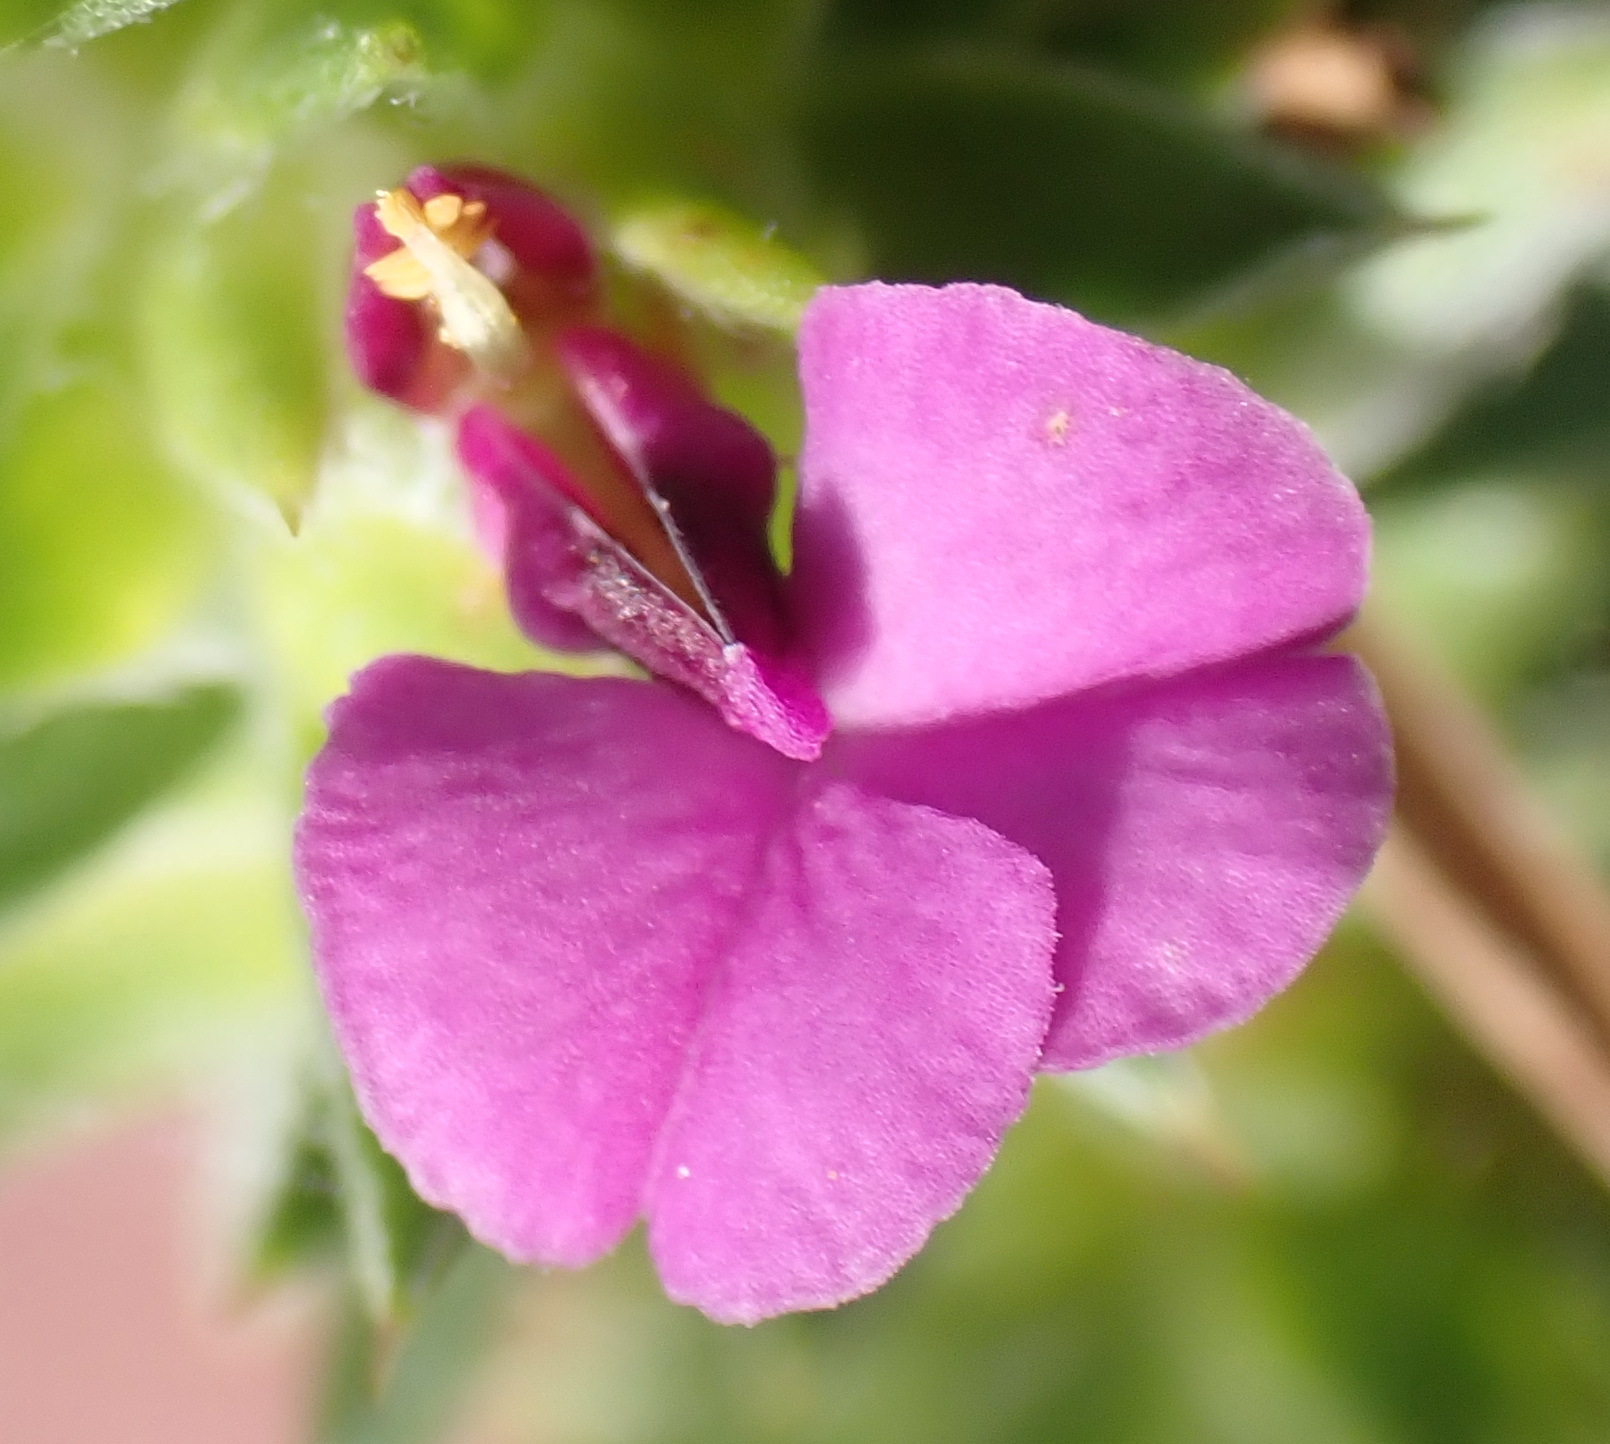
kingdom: Plantae
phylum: Tracheophyta
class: Magnoliopsida
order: Fabales
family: Polygalaceae
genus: Muraltia
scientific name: Muraltia squarrosa
